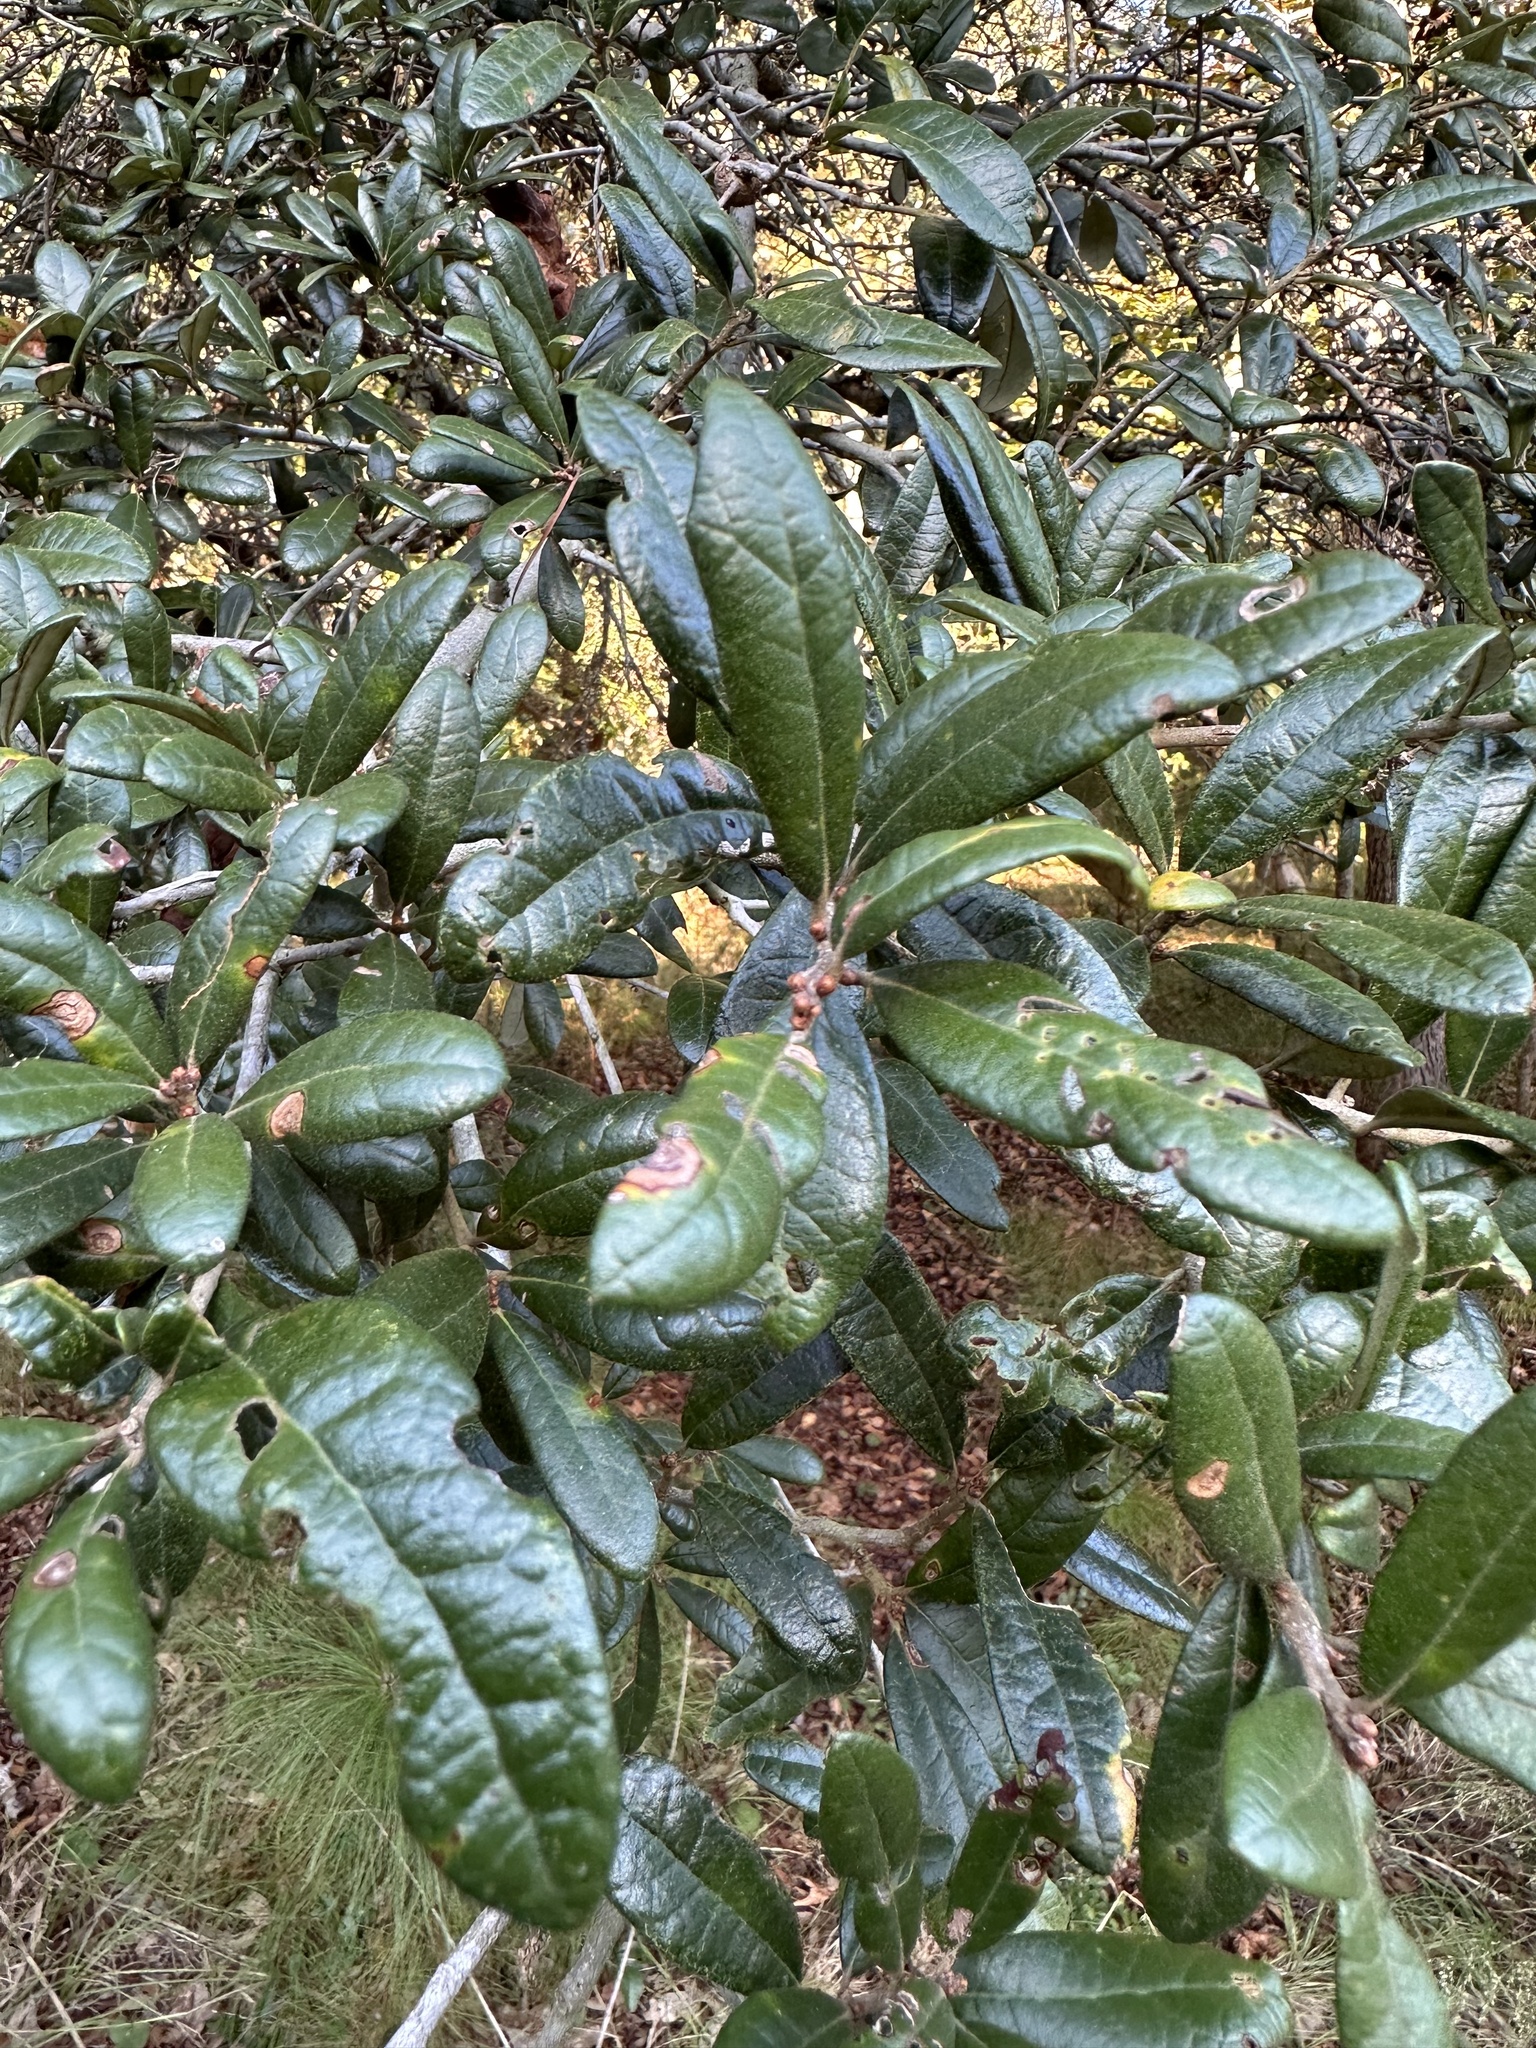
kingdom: Plantae
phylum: Tracheophyta
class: Magnoliopsida
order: Fagales
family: Fagaceae
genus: Quercus
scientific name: Quercus geminata
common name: Sand live oak
